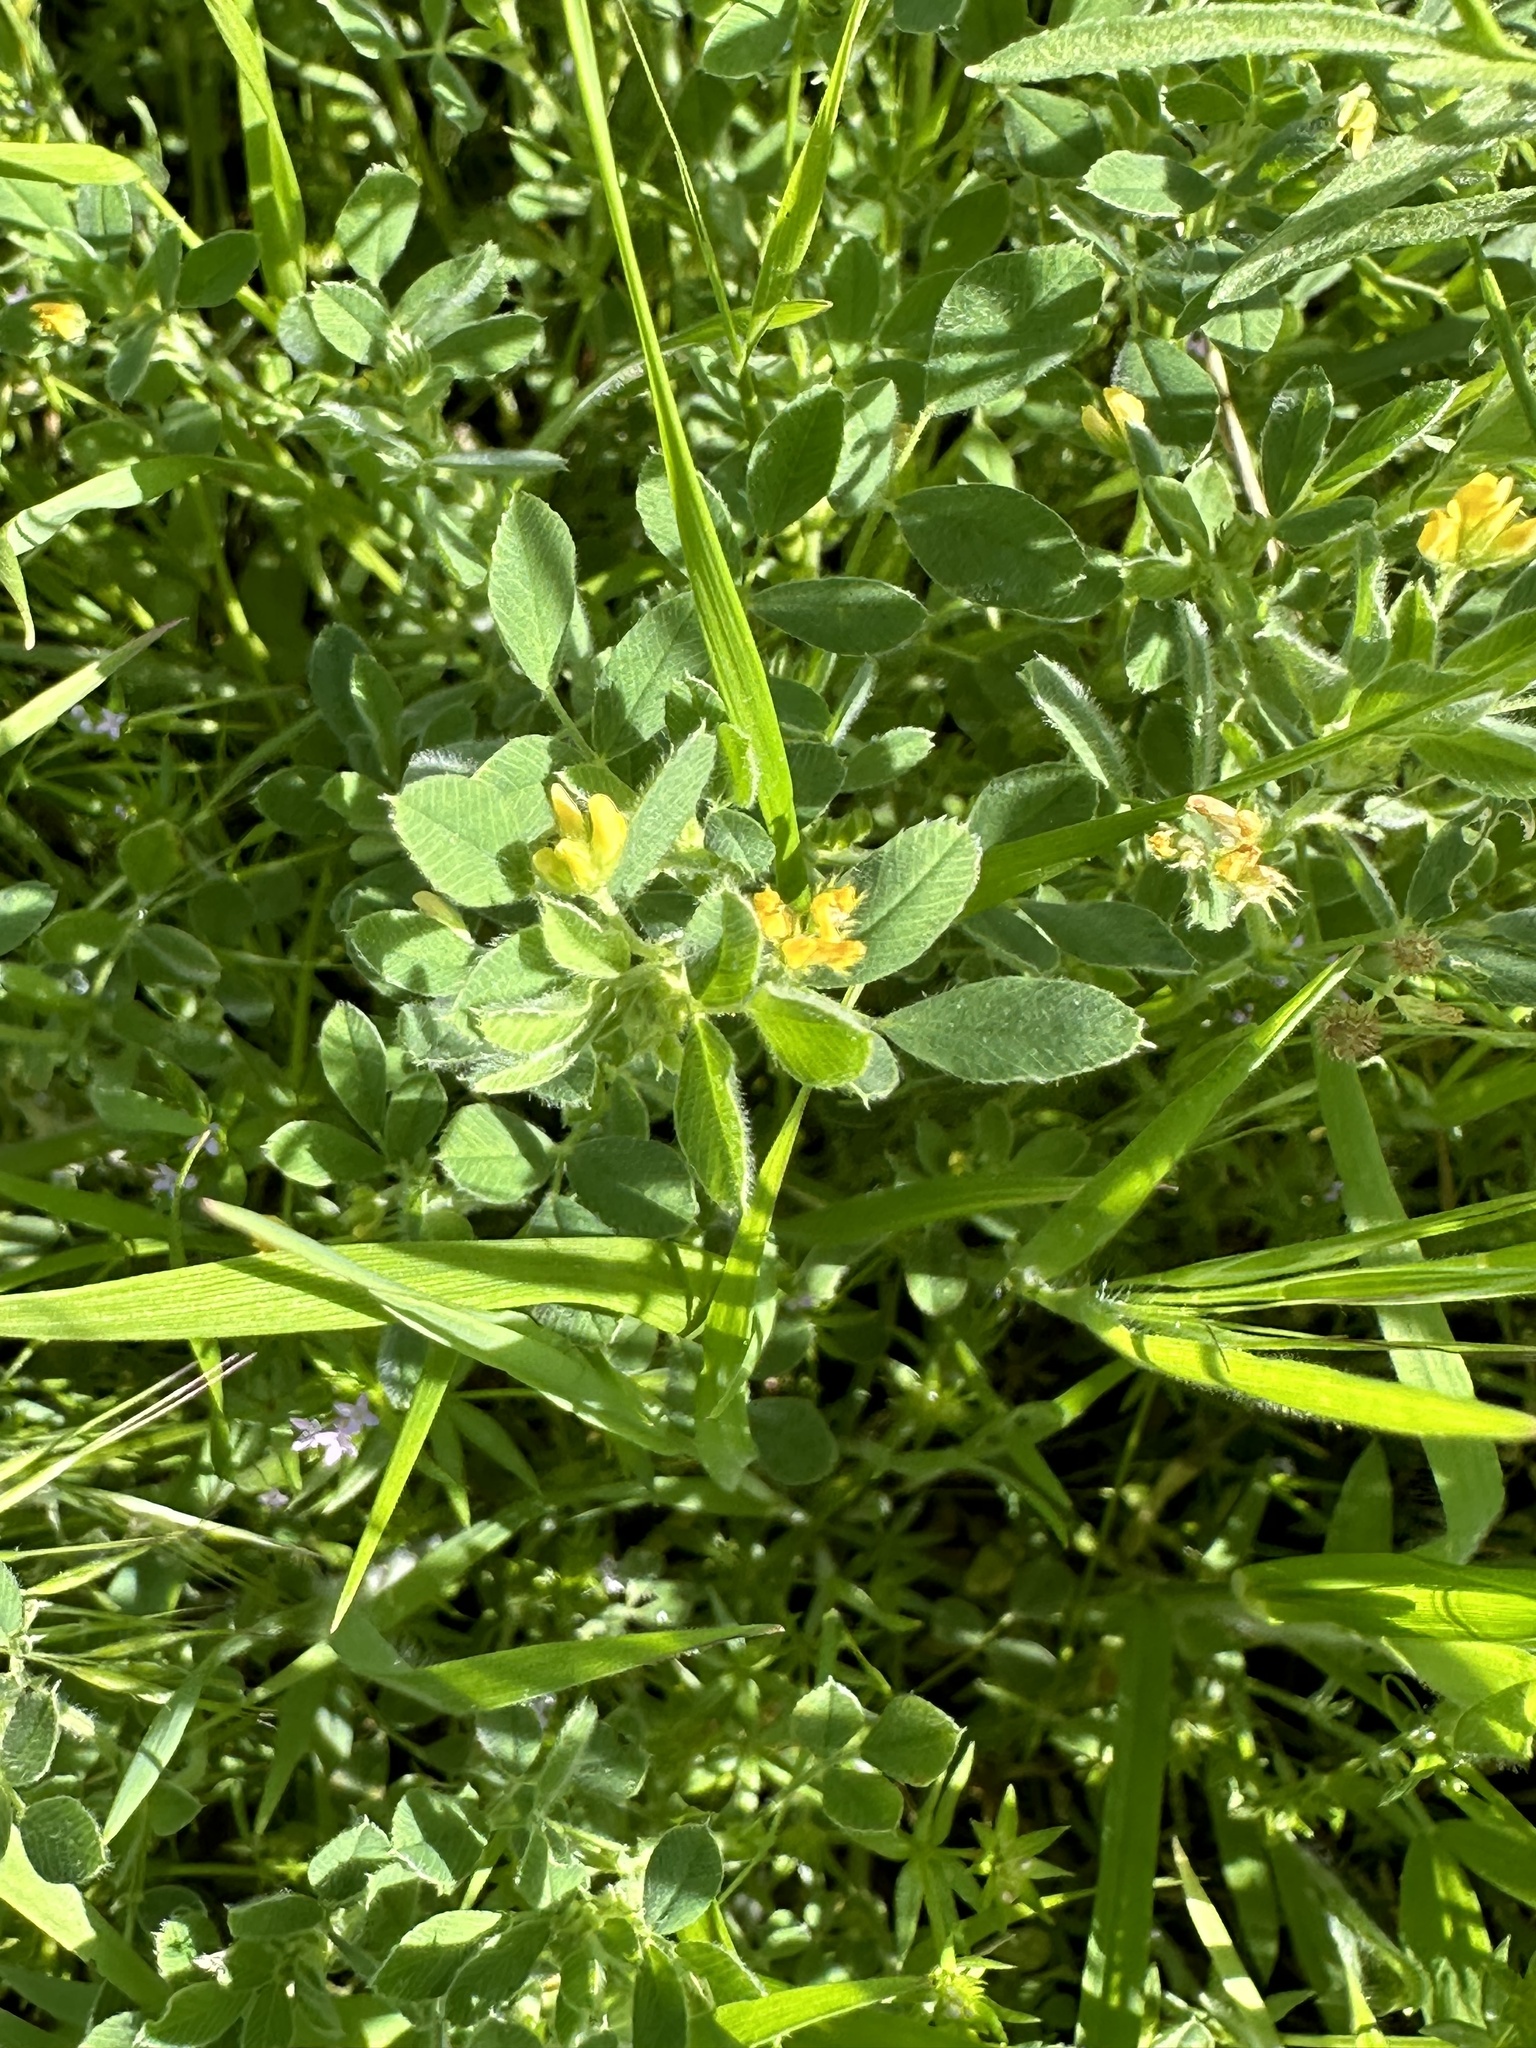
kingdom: Plantae
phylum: Tracheophyta
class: Magnoliopsida
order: Fabales
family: Fabaceae
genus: Medicago
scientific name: Medicago minima
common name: Little bur-clover
